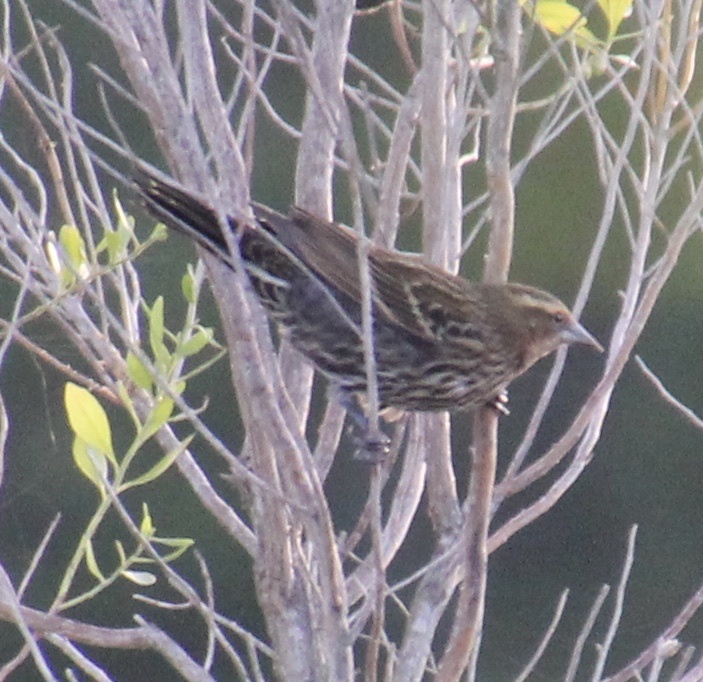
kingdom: Animalia
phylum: Chordata
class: Aves
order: Passeriformes
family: Icteridae
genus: Agelaius
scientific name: Agelaius phoeniceus
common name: Red-winged blackbird
